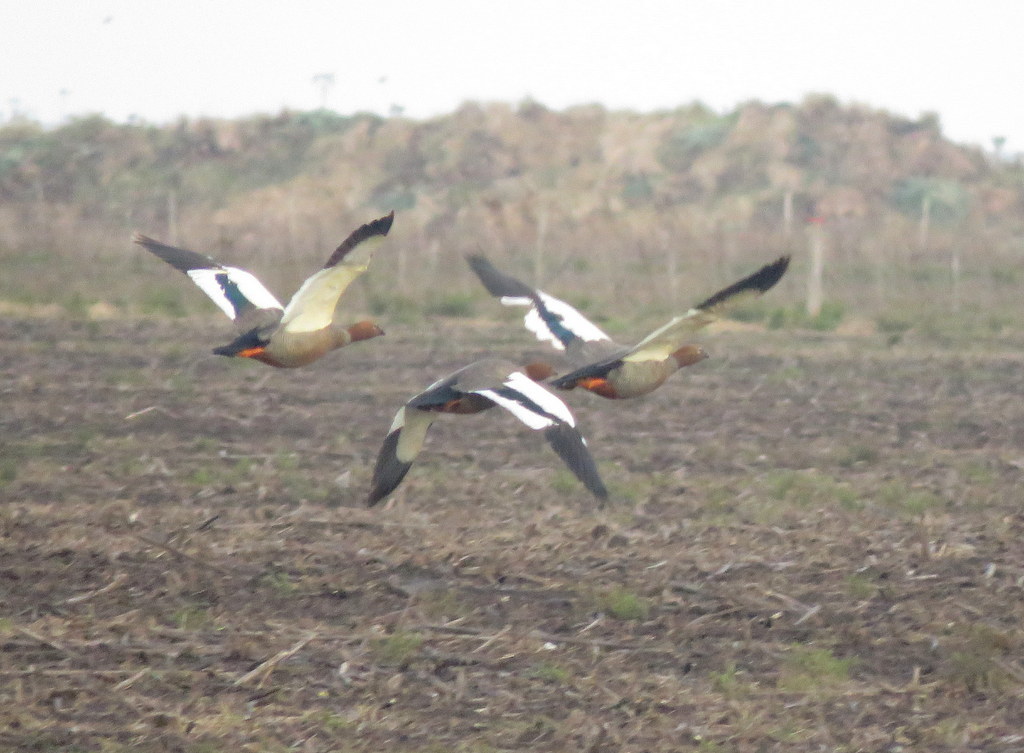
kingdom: Animalia
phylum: Chordata
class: Aves
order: Anseriformes
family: Anatidae
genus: Chloephaga
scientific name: Chloephaga rubidiceps
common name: Ruddy-headed goose
